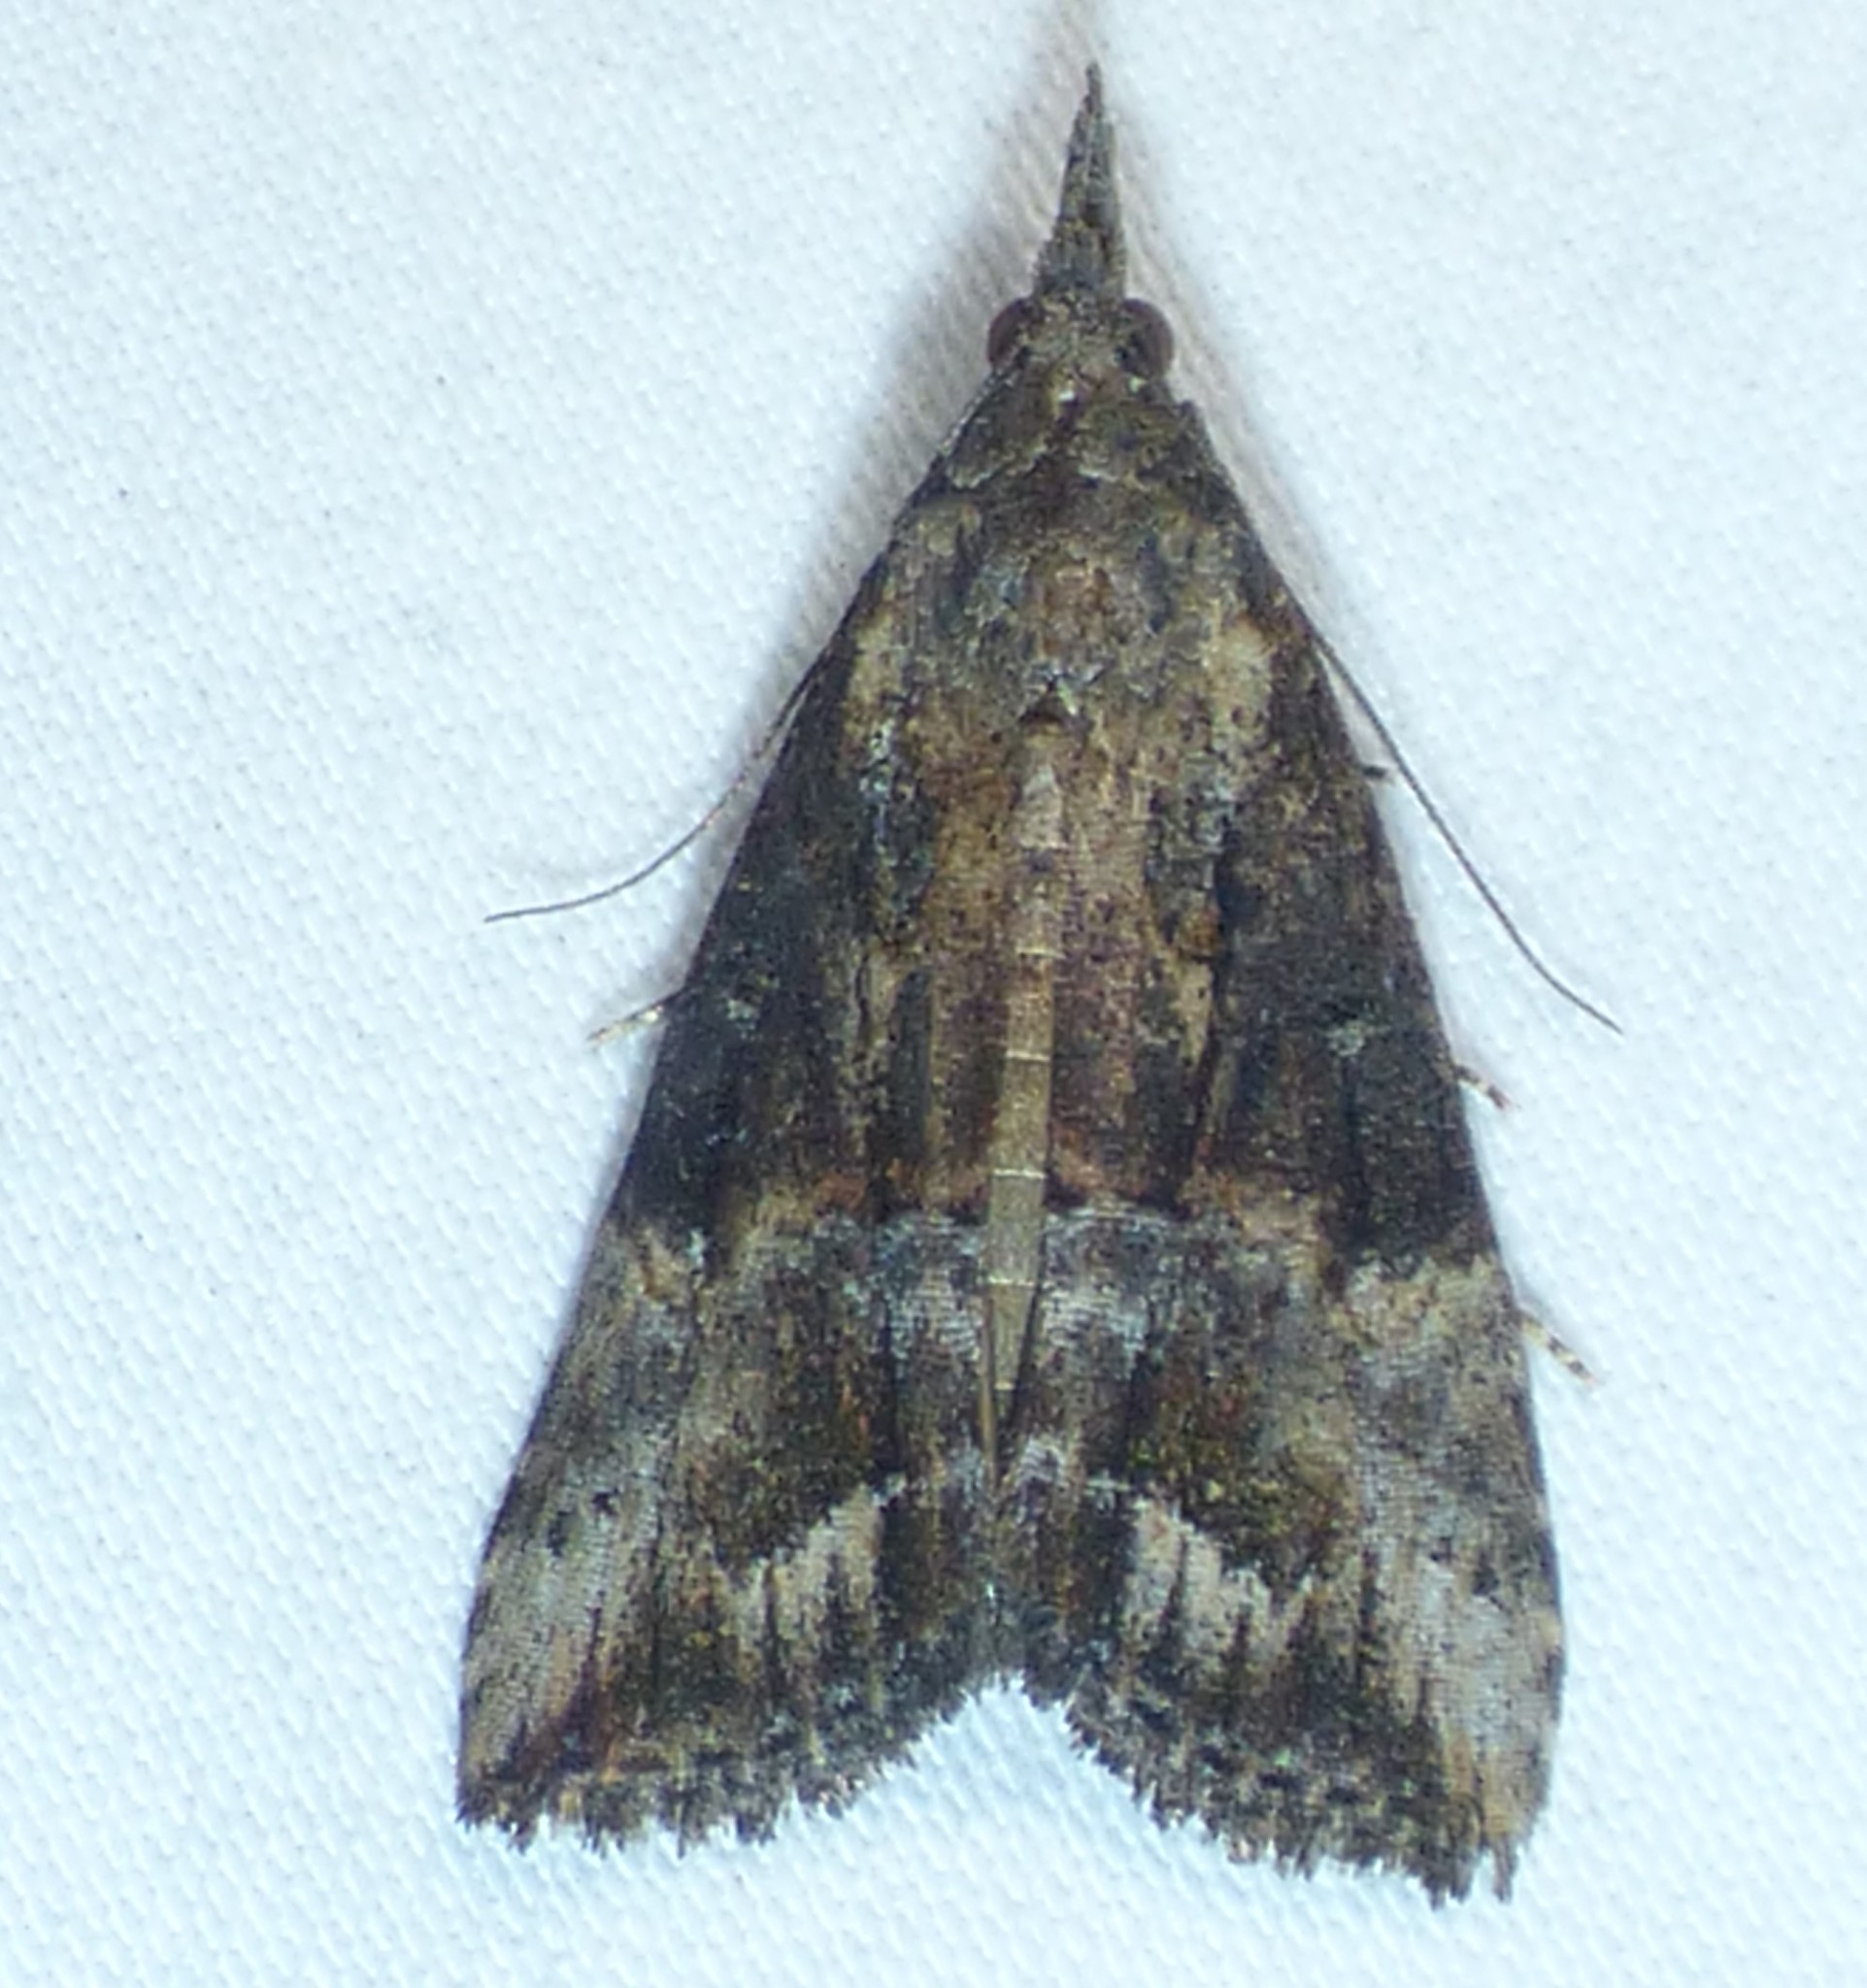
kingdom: Animalia
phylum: Arthropoda
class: Insecta
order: Lepidoptera
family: Erebidae
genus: Hypena
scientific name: Hypena scabra
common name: Green cloverworm
